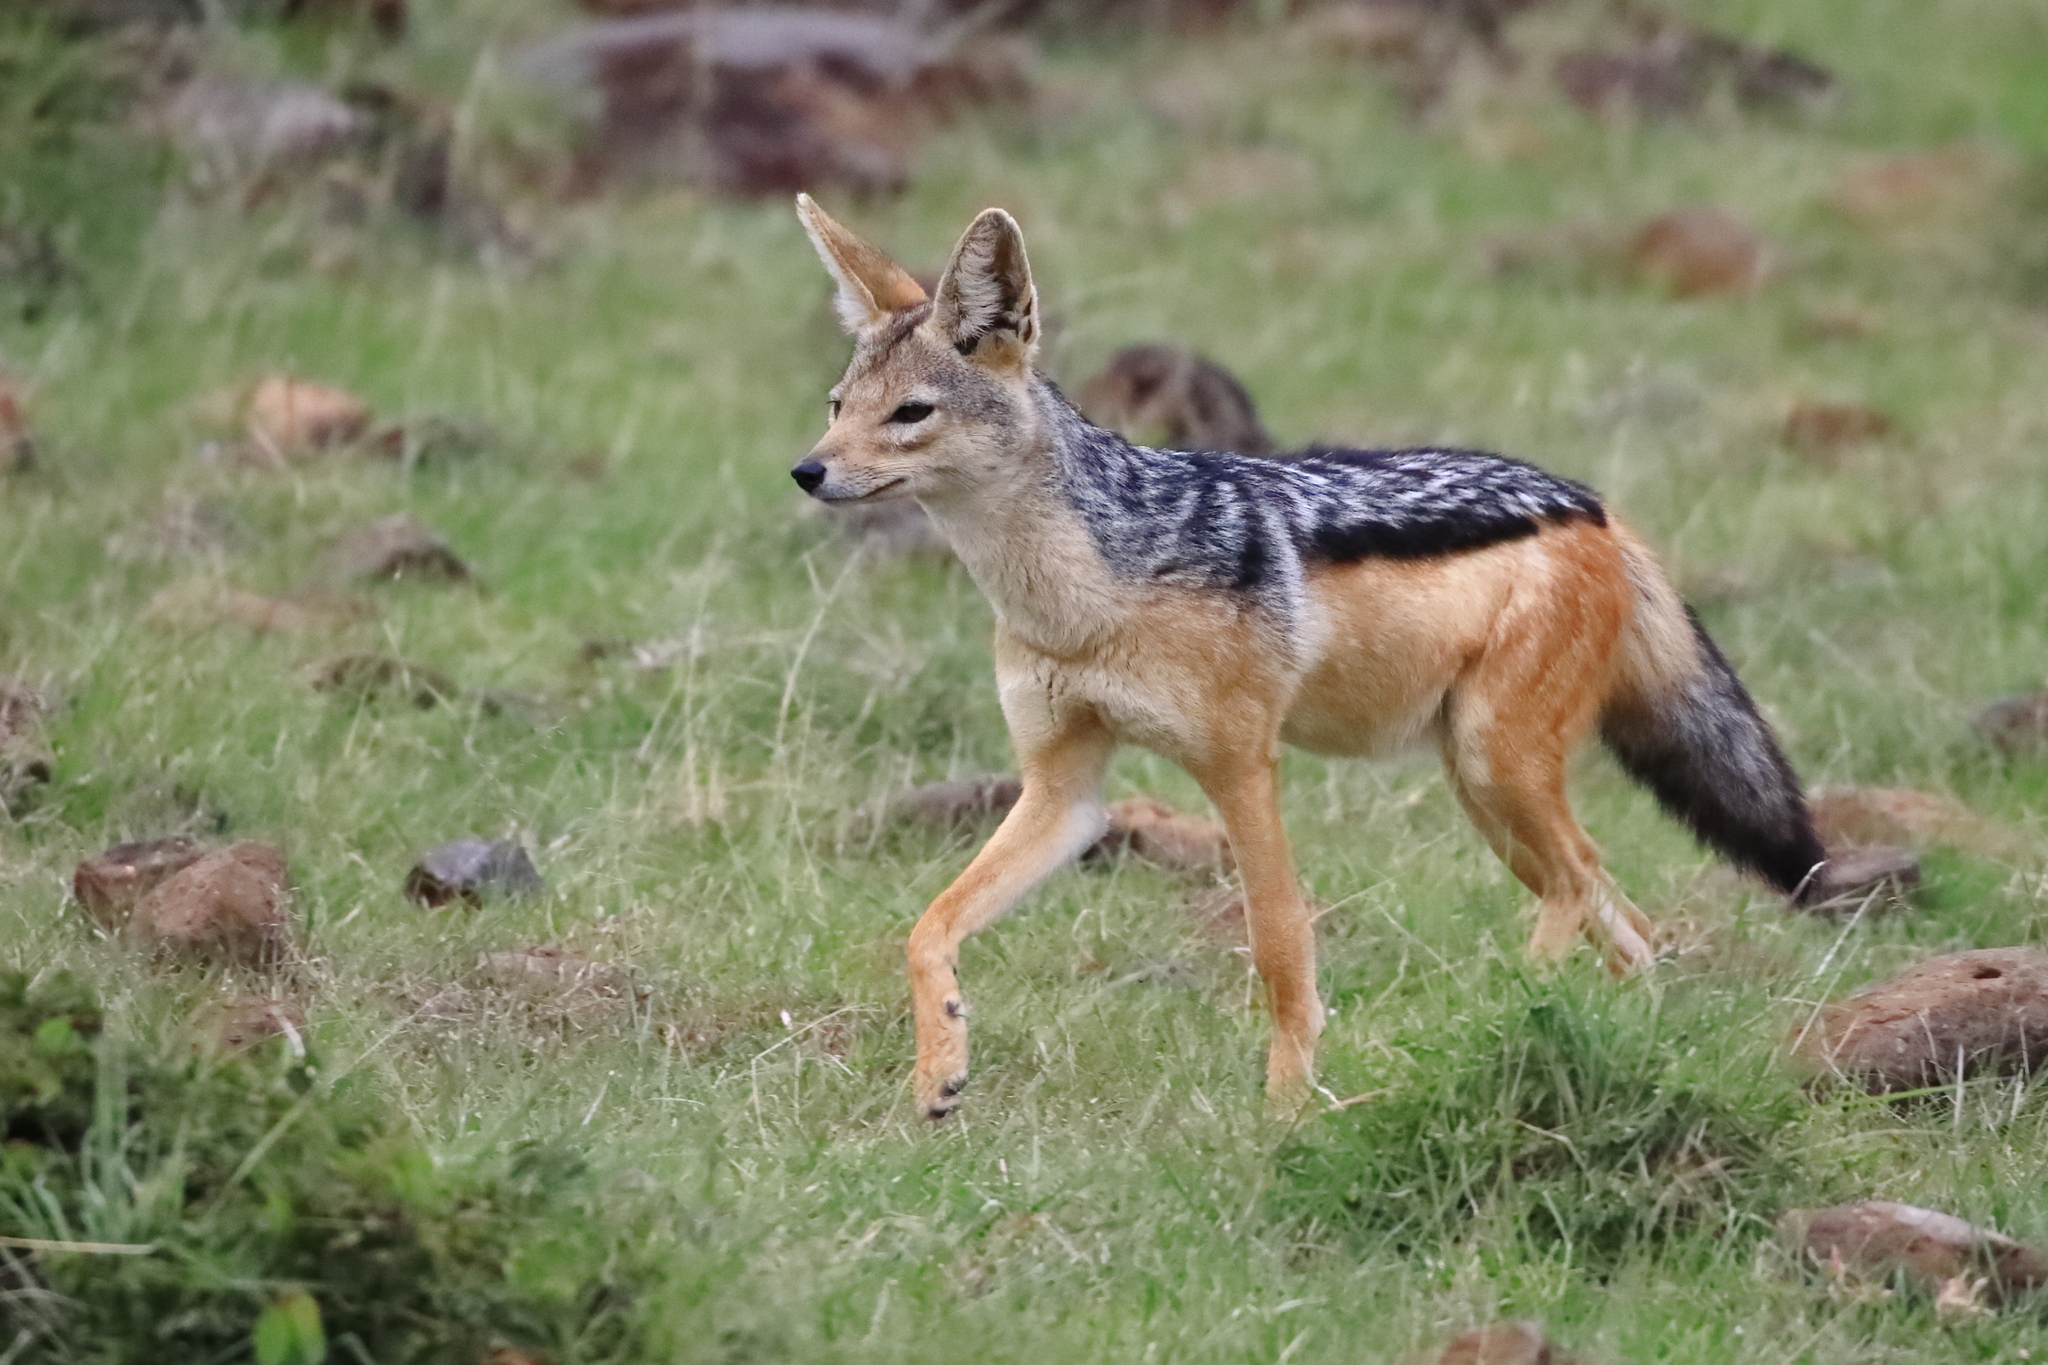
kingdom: Animalia
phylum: Chordata
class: Mammalia
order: Carnivora
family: Canidae
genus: Lupulella
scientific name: Lupulella
